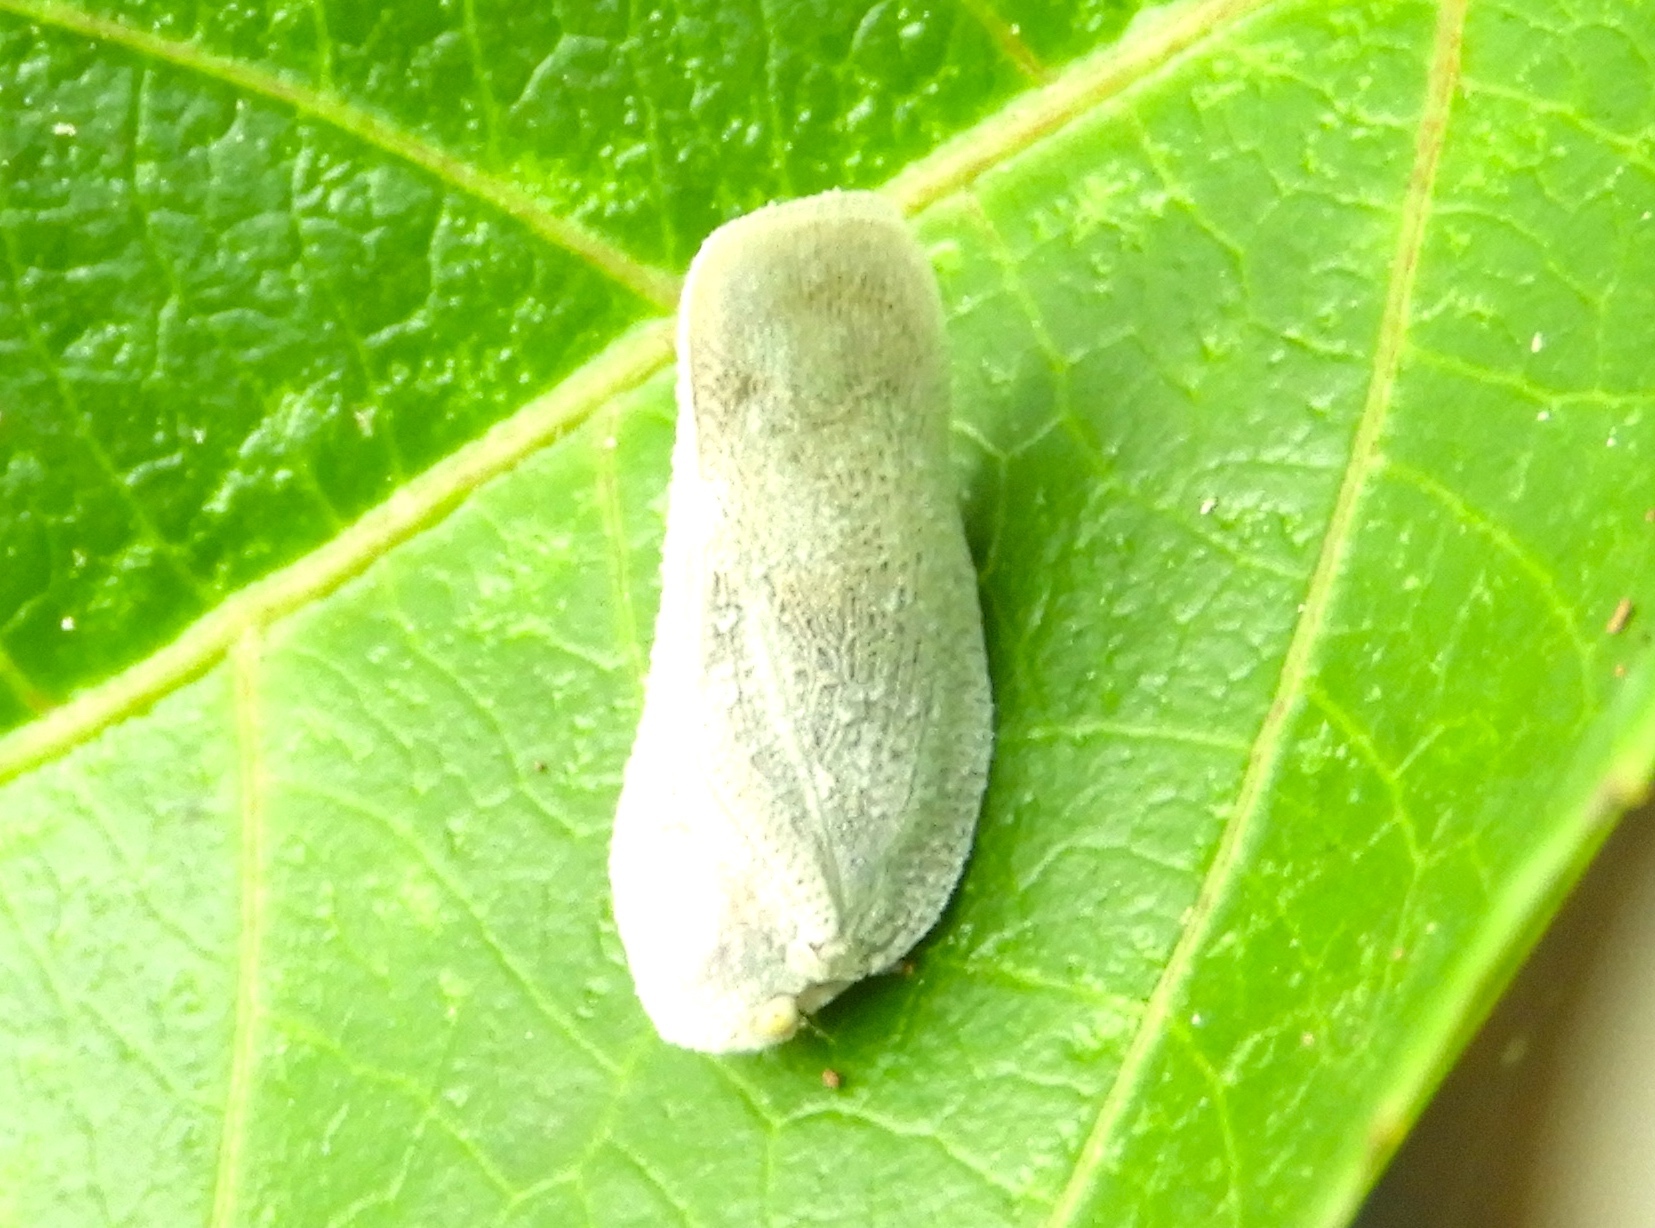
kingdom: Animalia
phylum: Arthropoda
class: Insecta
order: Hemiptera
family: Flatidae
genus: Metcalfa
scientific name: Metcalfa
